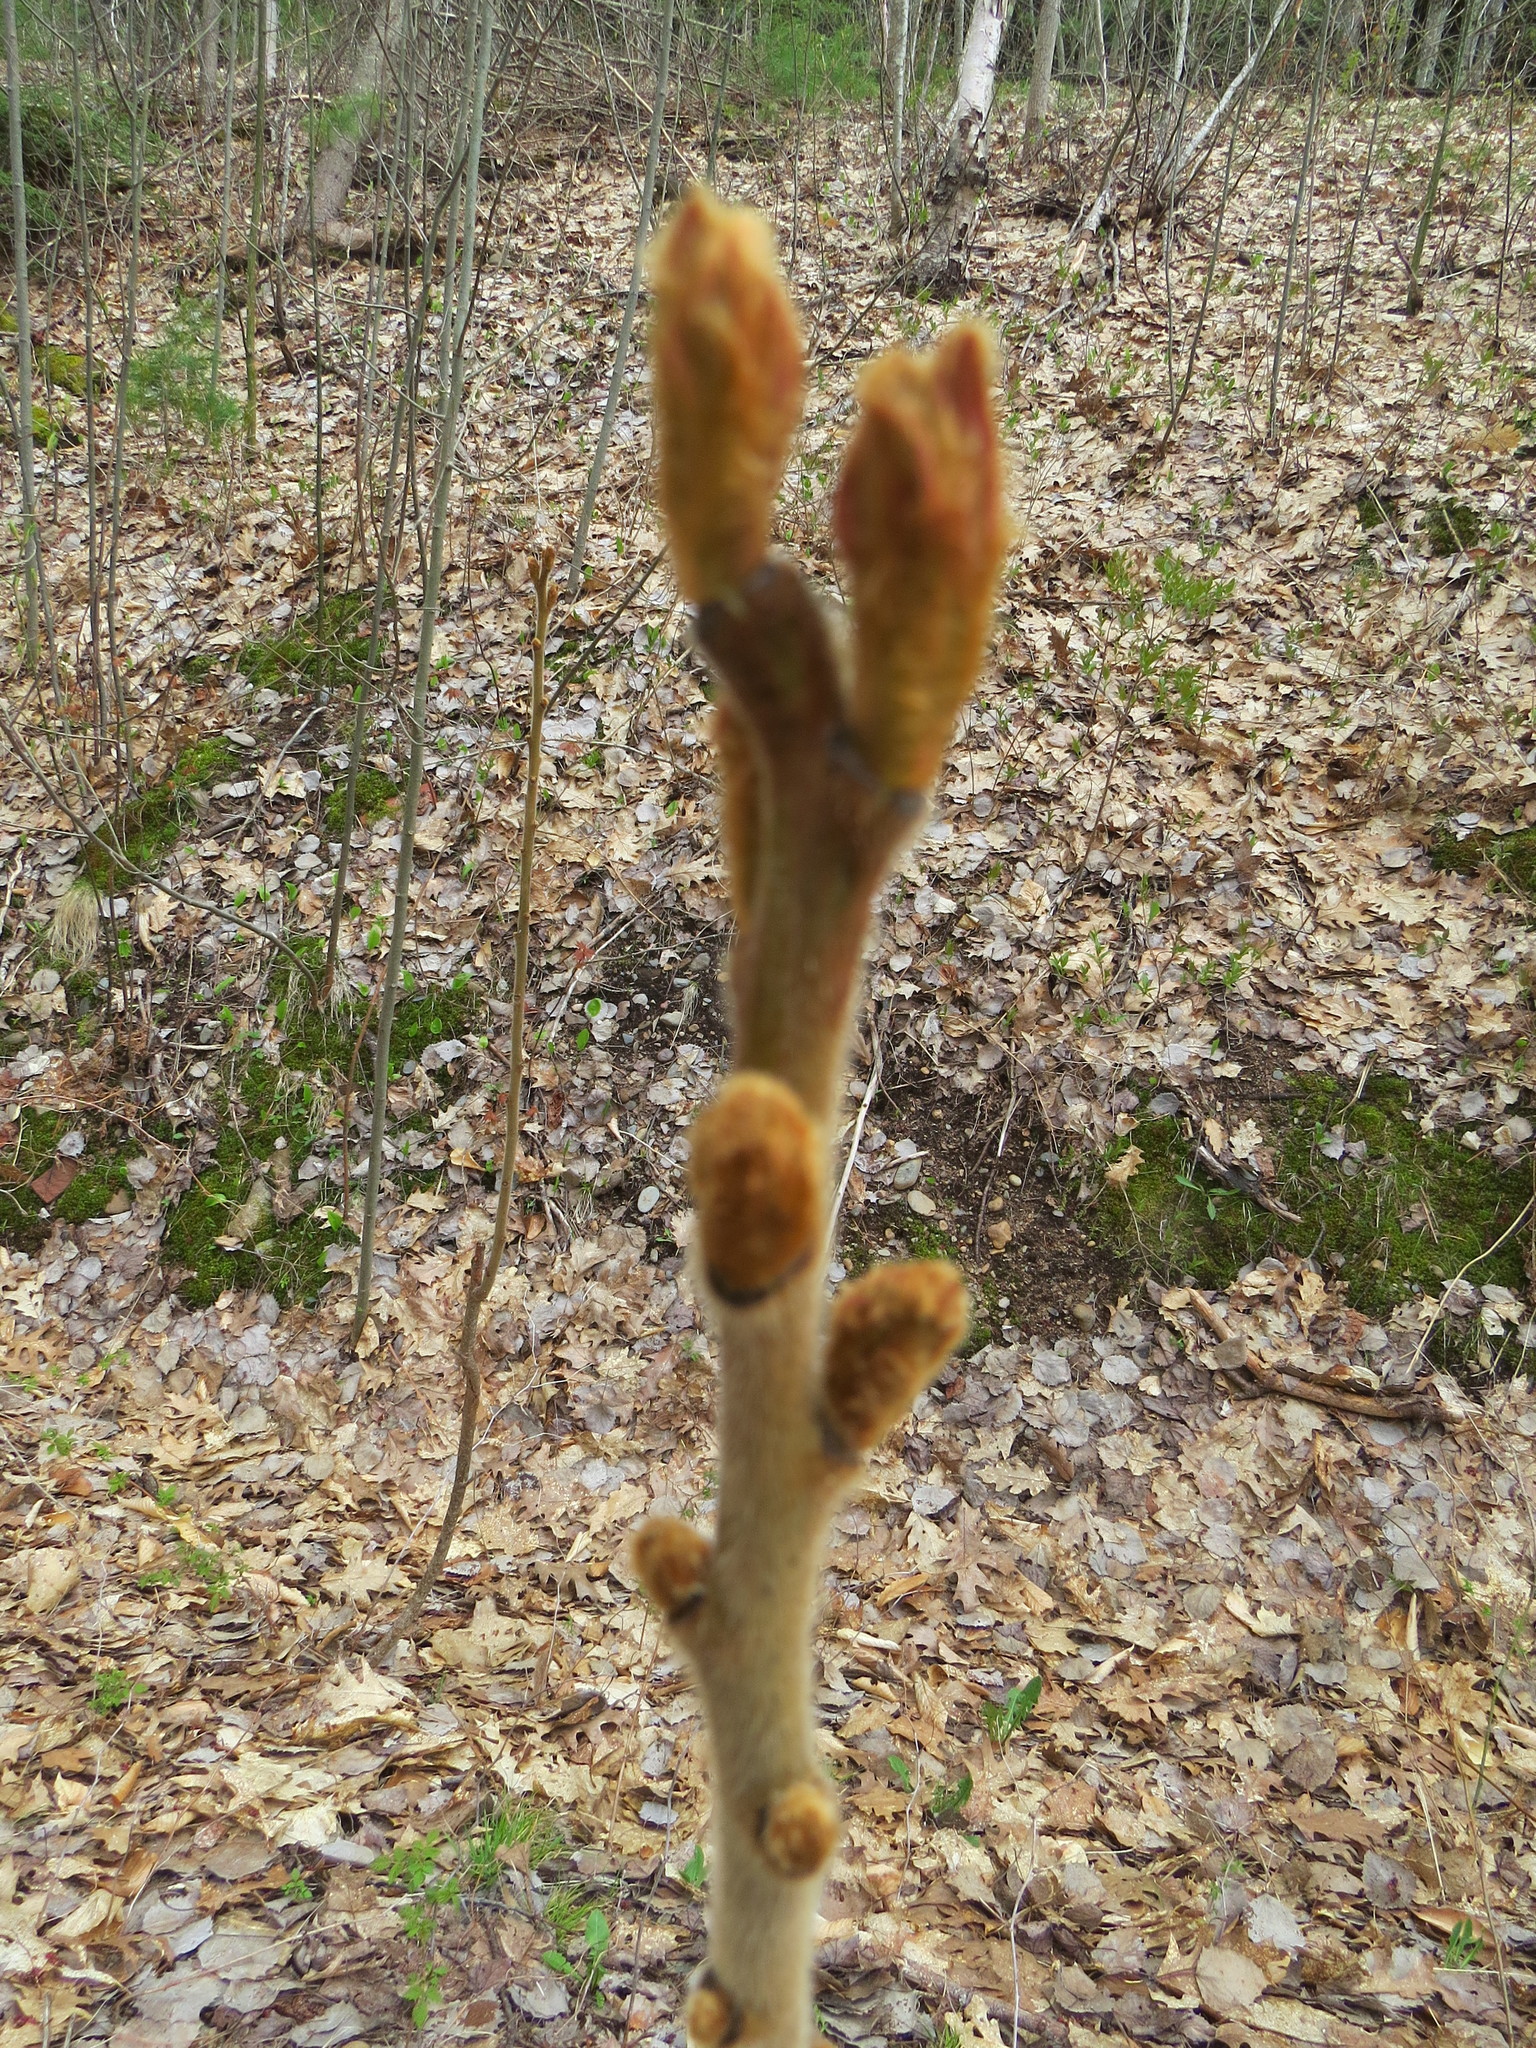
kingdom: Plantae
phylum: Tracheophyta
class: Magnoliopsida
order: Sapindales
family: Anacardiaceae
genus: Rhus
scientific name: Rhus typhina
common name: Staghorn sumac
